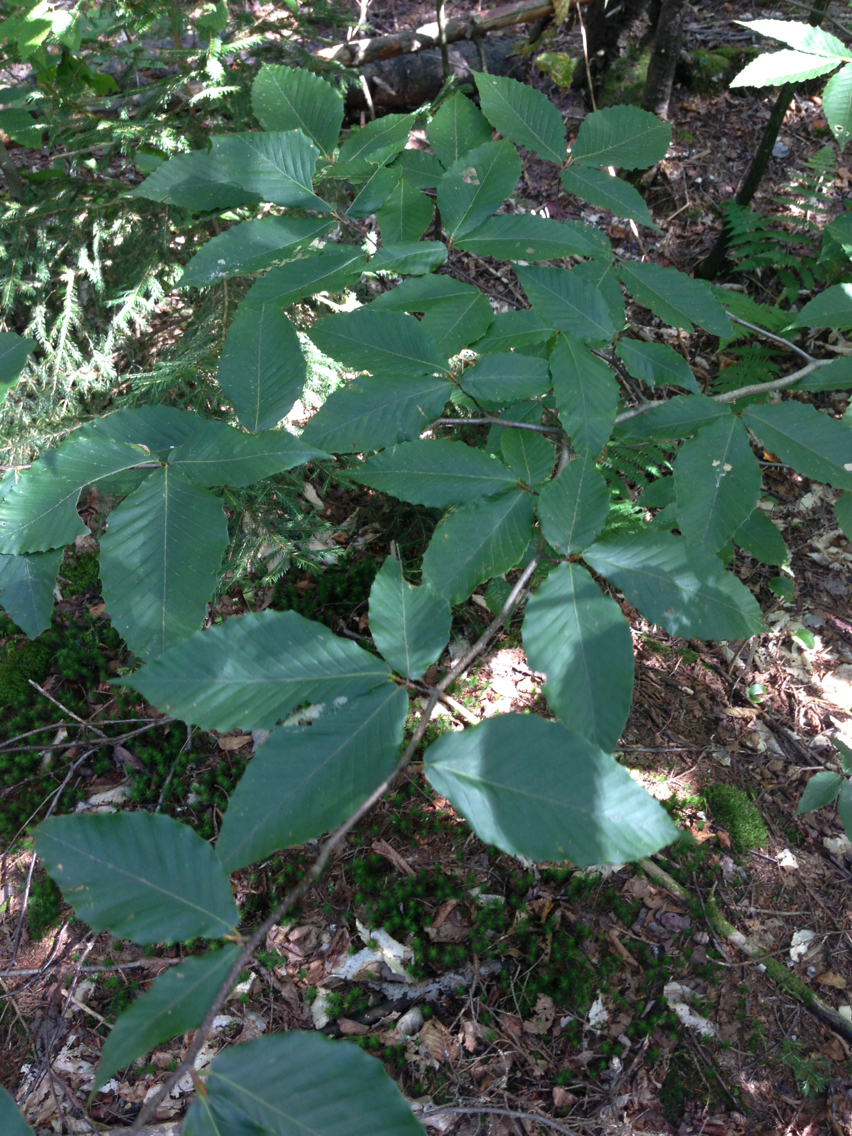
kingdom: Plantae
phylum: Tracheophyta
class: Magnoliopsida
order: Fagales
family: Fagaceae
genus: Fagus
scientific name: Fagus grandifolia
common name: American beech
